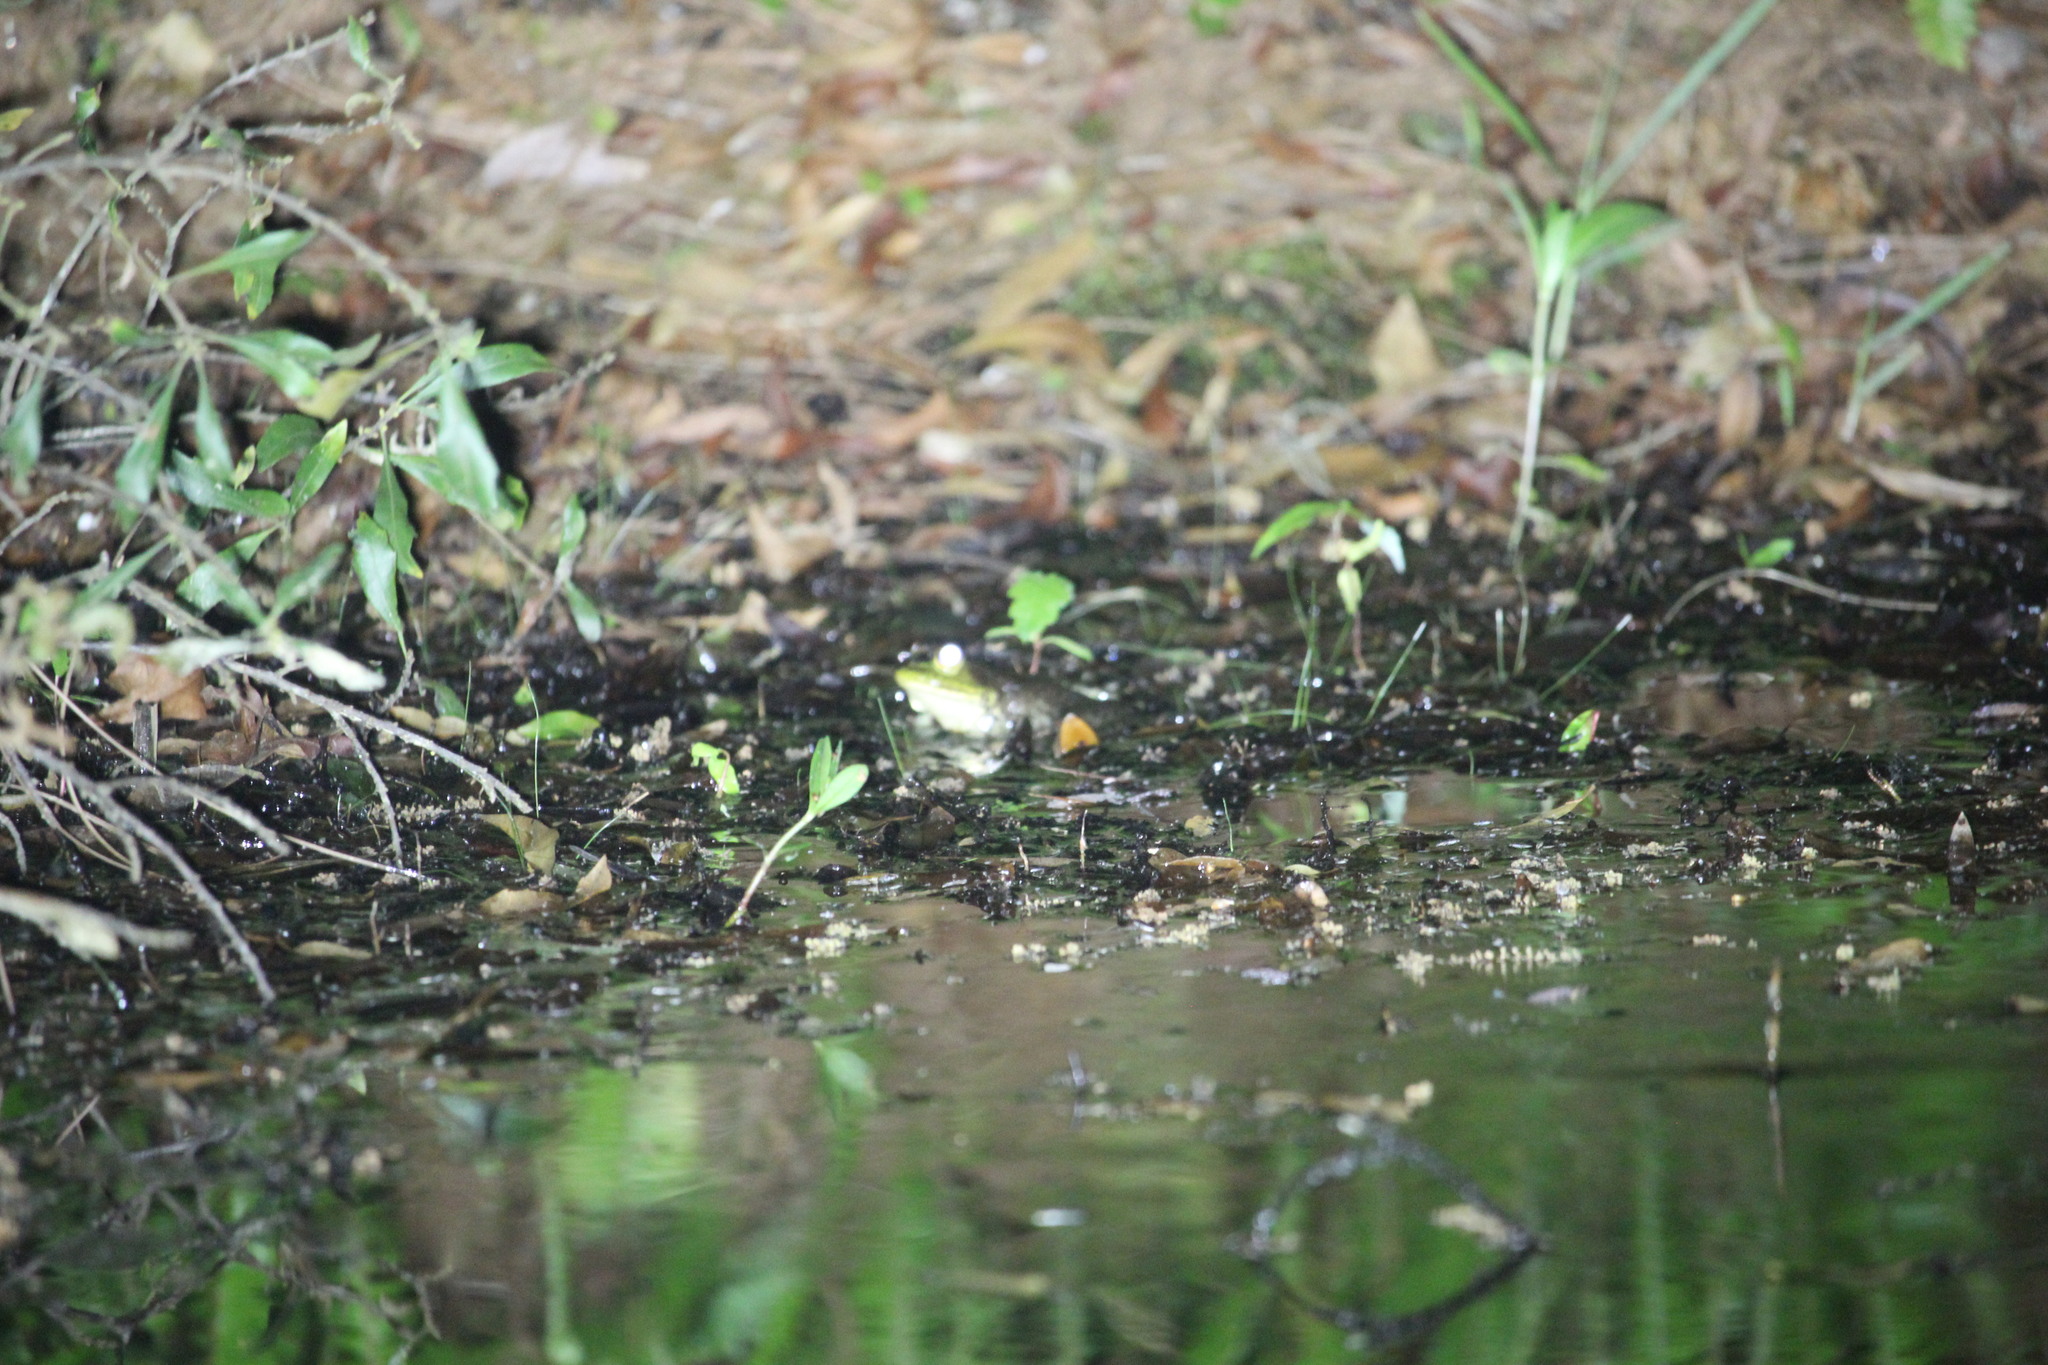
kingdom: Animalia
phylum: Chordata
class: Amphibia
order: Anura
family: Ranidae
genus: Lithobates
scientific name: Lithobates catesbeianus
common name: American bullfrog
